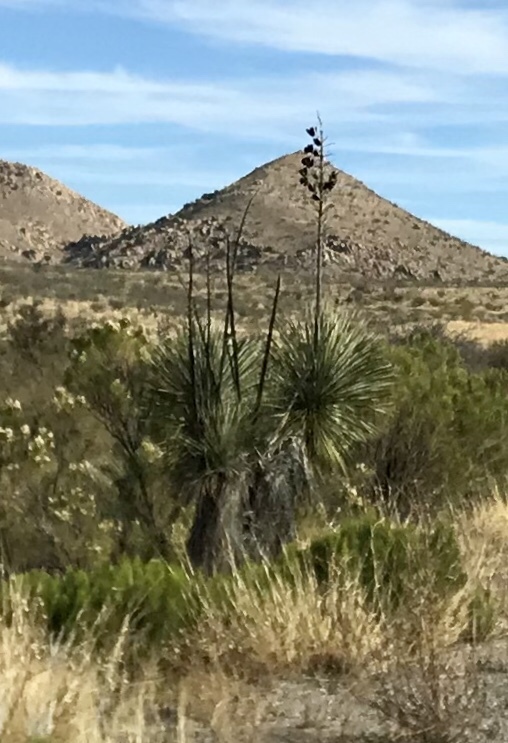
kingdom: Plantae
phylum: Tracheophyta
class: Liliopsida
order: Asparagales
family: Asparagaceae
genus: Yucca
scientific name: Yucca elata
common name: Palmella
